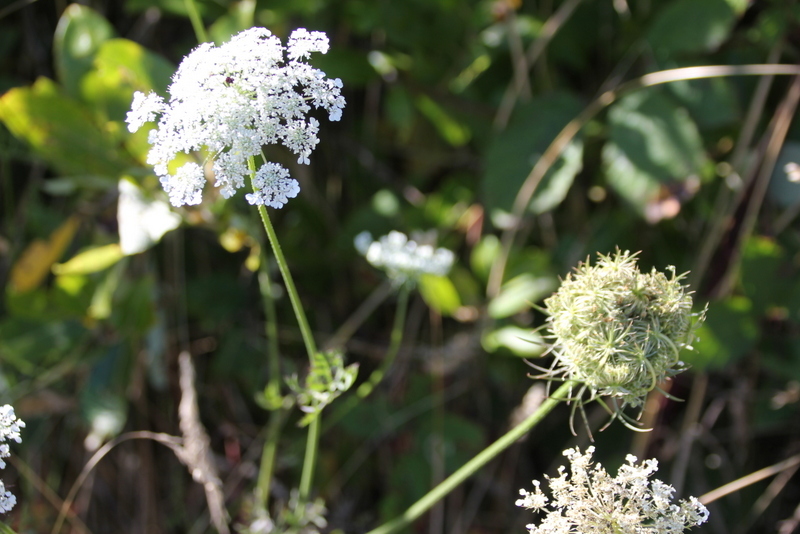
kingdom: Plantae
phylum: Tracheophyta
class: Magnoliopsida
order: Apiales
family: Apiaceae
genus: Daucus
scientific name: Daucus carota
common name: Wild carrot
